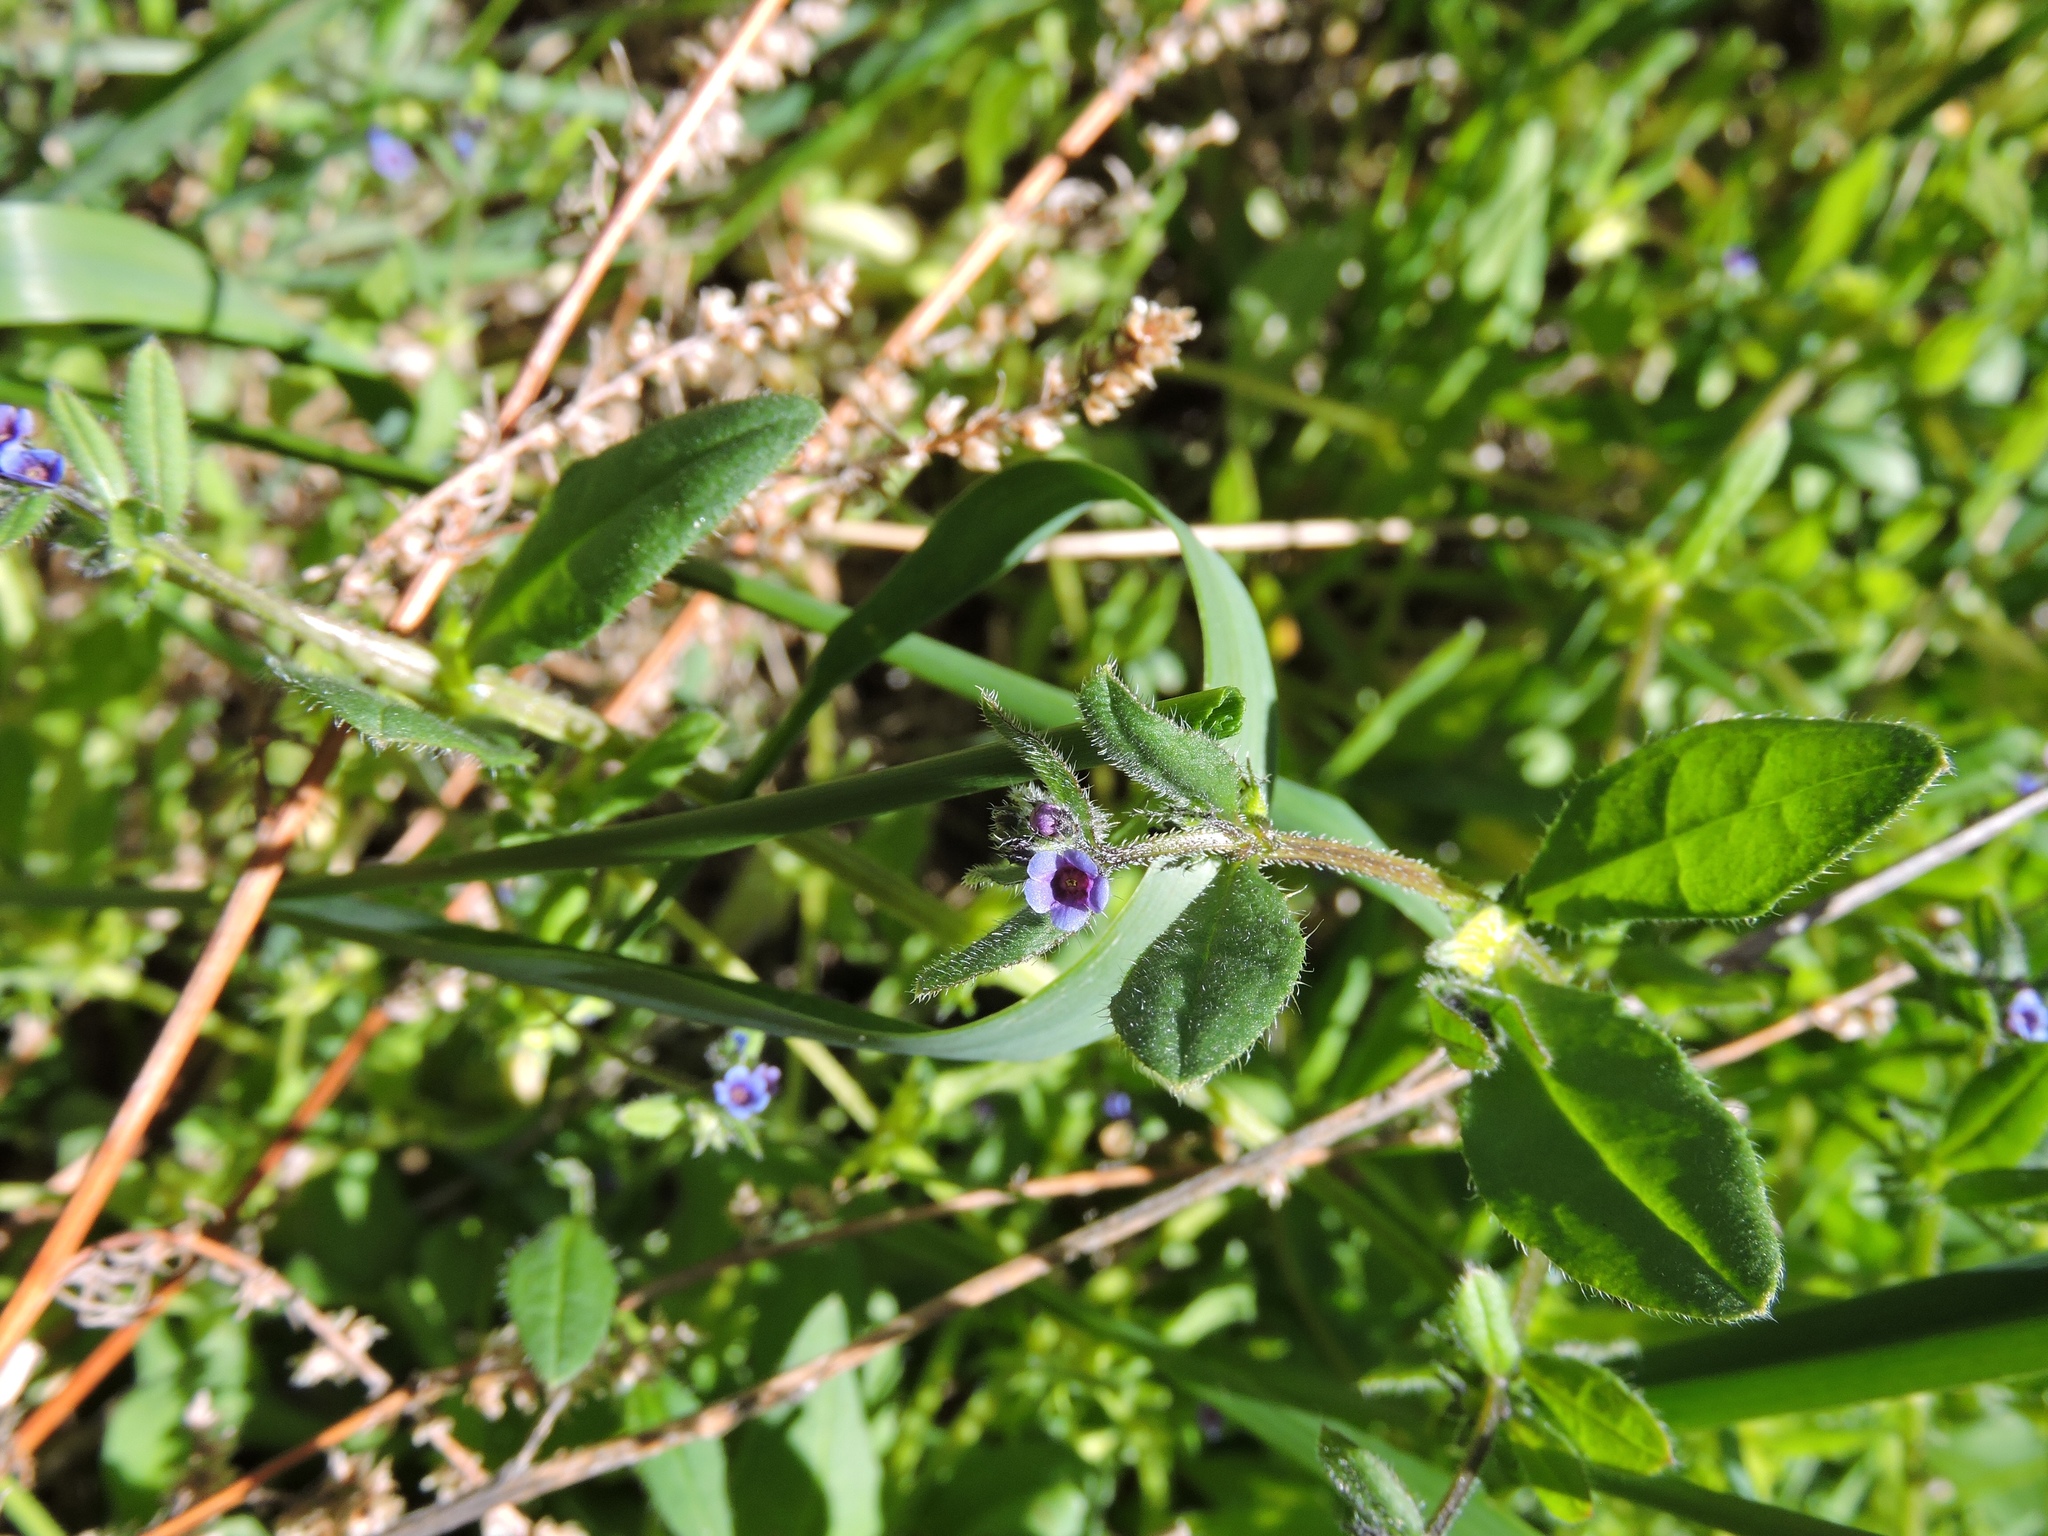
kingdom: Plantae
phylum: Tracheophyta
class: Magnoliopsida
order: Boraginales
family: Boraginaceae
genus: Asperugo
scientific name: Asperugo procumbens
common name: Madwort
